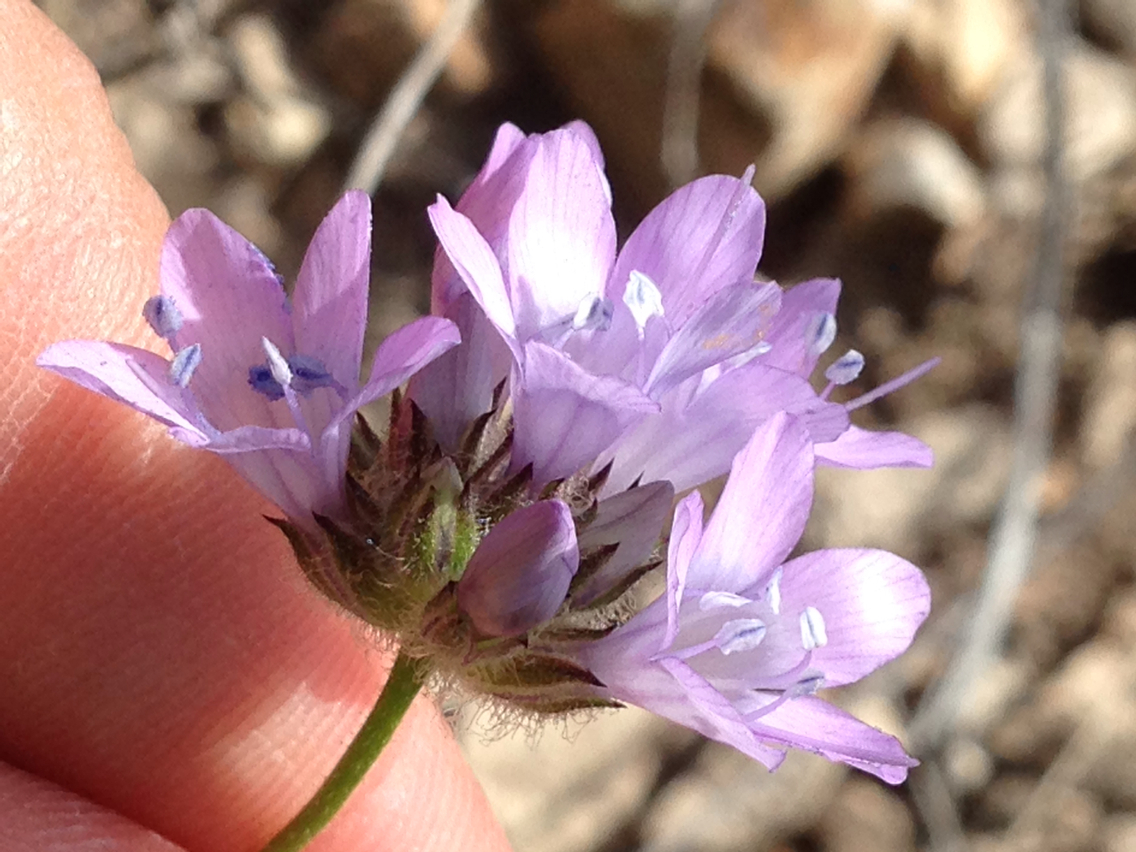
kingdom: Plantae
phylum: Tracheophyta
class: Magnoliopsida
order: Ericales
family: Polemoniaceae
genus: Gilia
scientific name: Gilia achilleifolia
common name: California gily-flower
